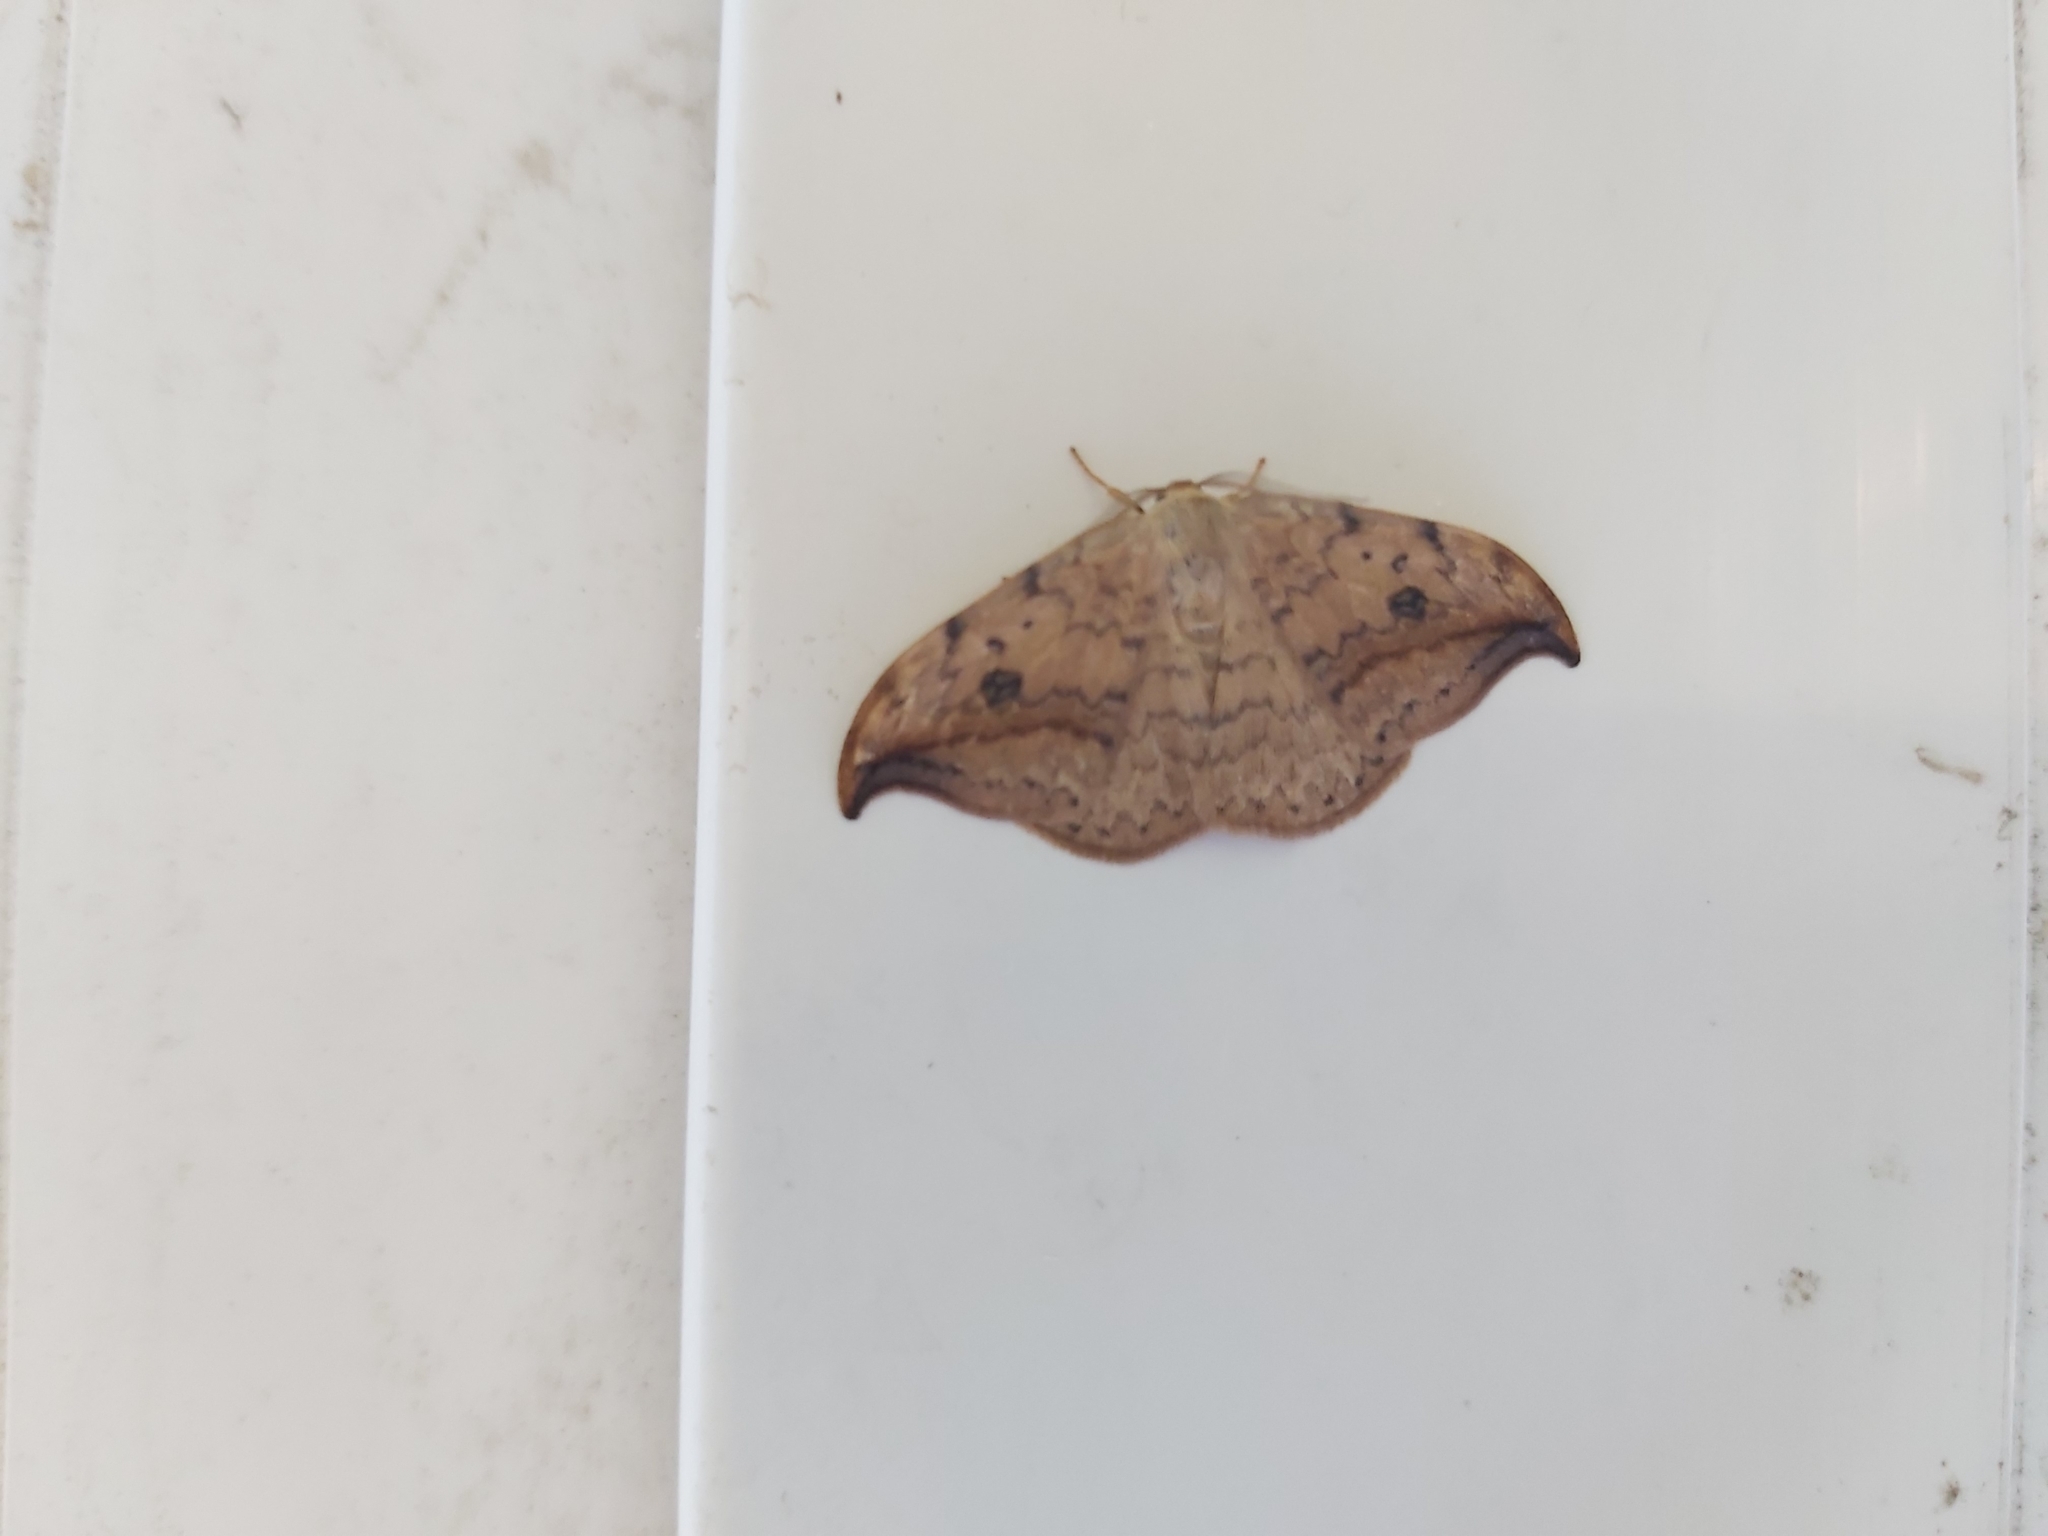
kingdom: Animalia
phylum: Arthropoda
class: Insecta
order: Lepidoptera
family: Drepanidae
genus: Drepana
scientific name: Drepana falcataria
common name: Pebble hook-tip
